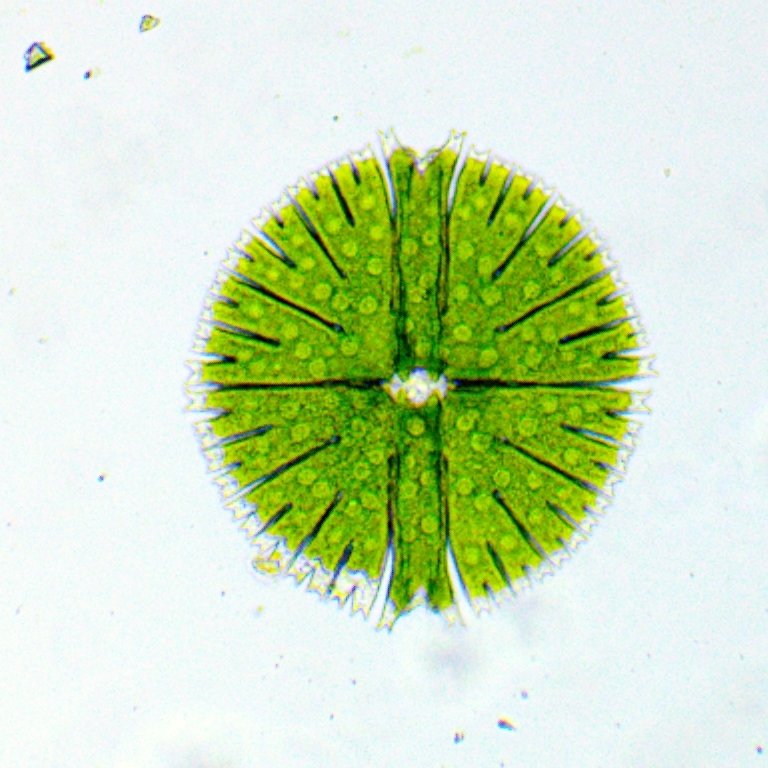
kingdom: Plantae
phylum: Charophyta
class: Conjugatophyceae
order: Desmidiales
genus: Micrasterias
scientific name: Micrasterias rotata
